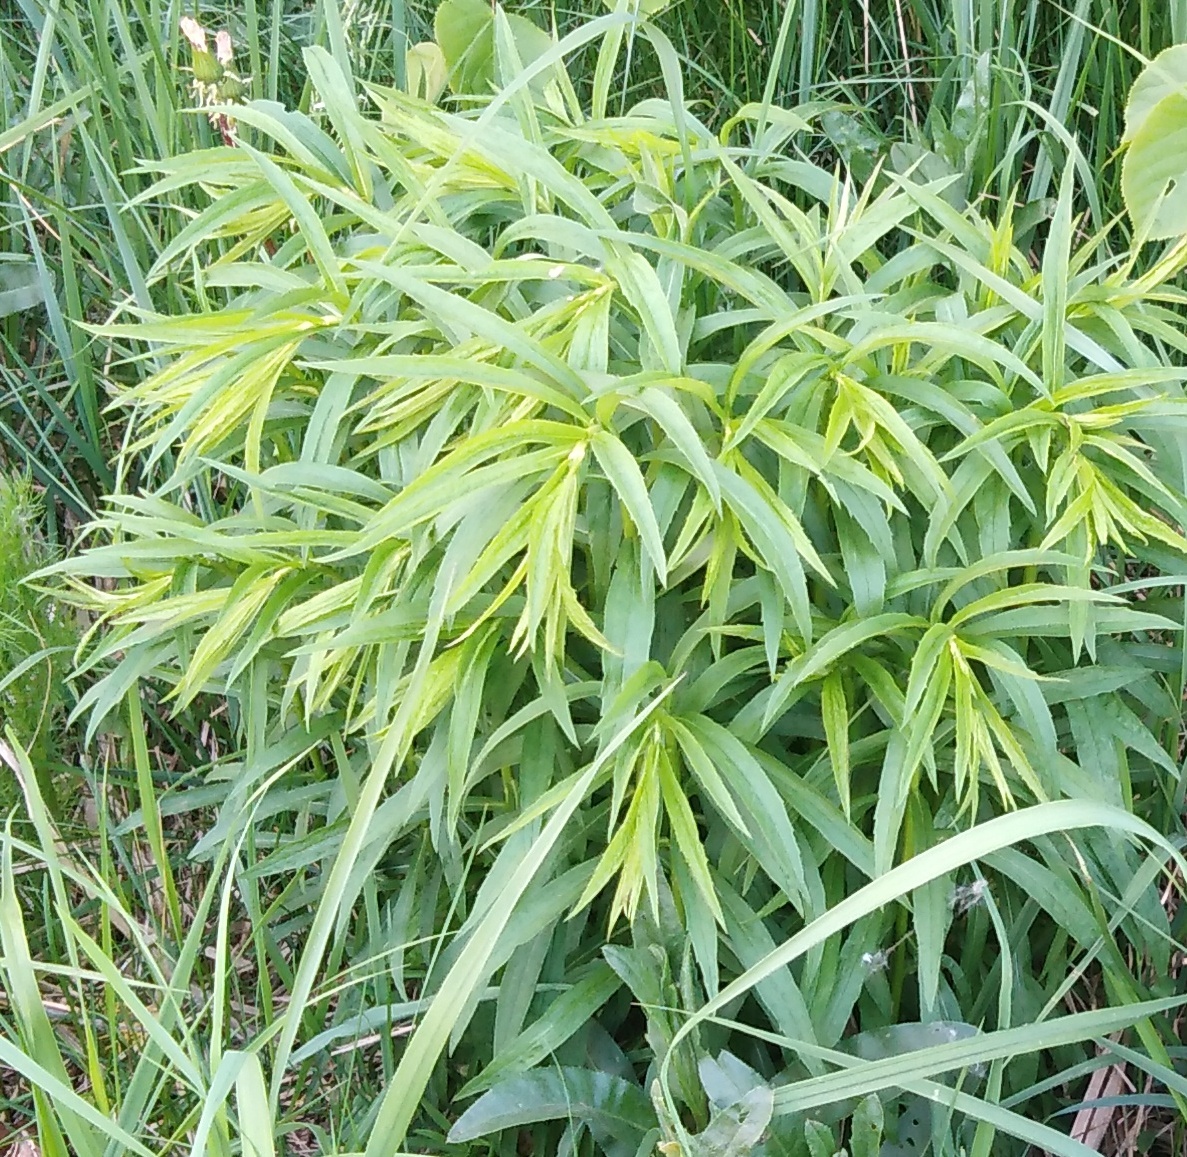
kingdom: Plantae
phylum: Tracheophyta
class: Magnoliopsida
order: Asterales
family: Asteraceae
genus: Solidago
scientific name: Solidago canadensis
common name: Canada goldenrod
